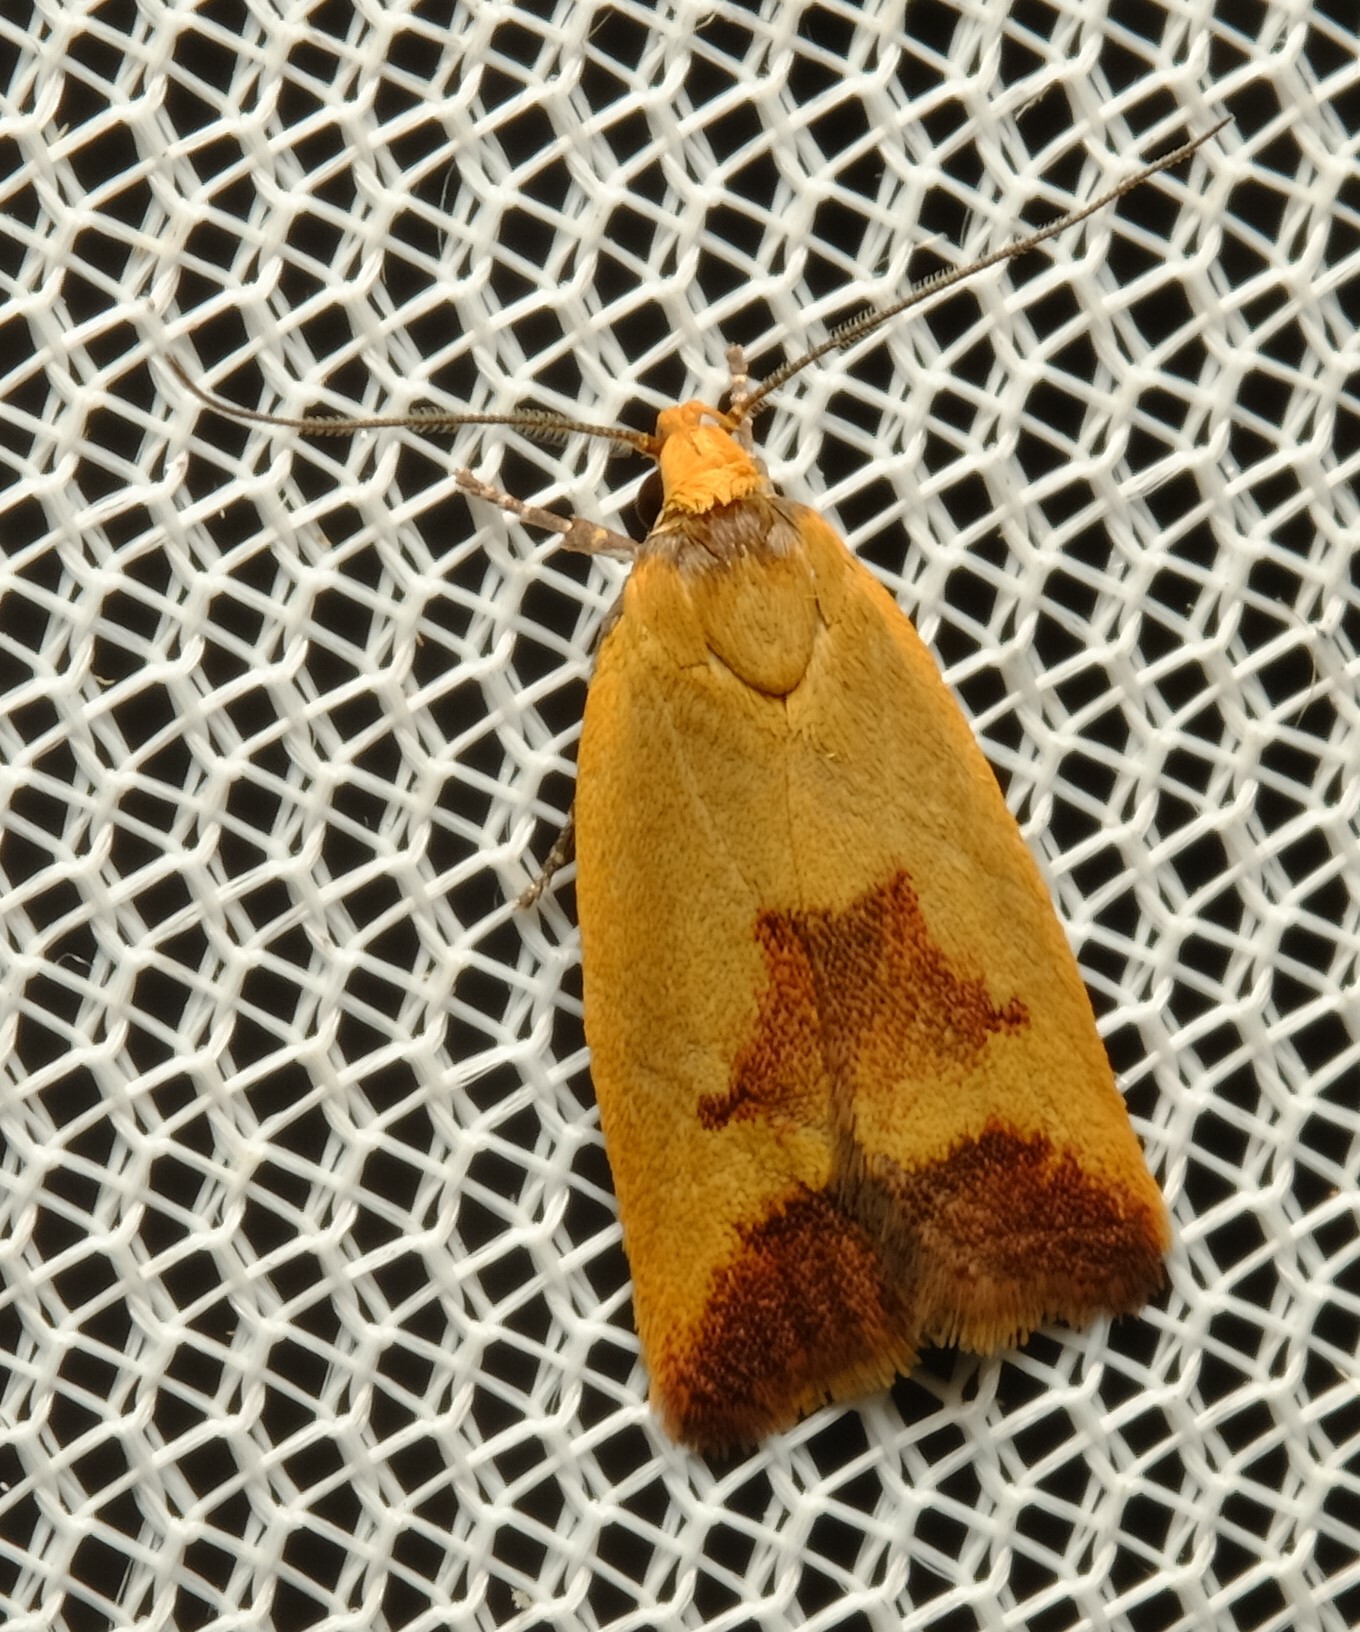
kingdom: Animalia
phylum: Arthropoda
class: Insecta
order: Lepidoptera
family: Oecophoridae
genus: Ageletha
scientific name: Ageletha hemiteles
